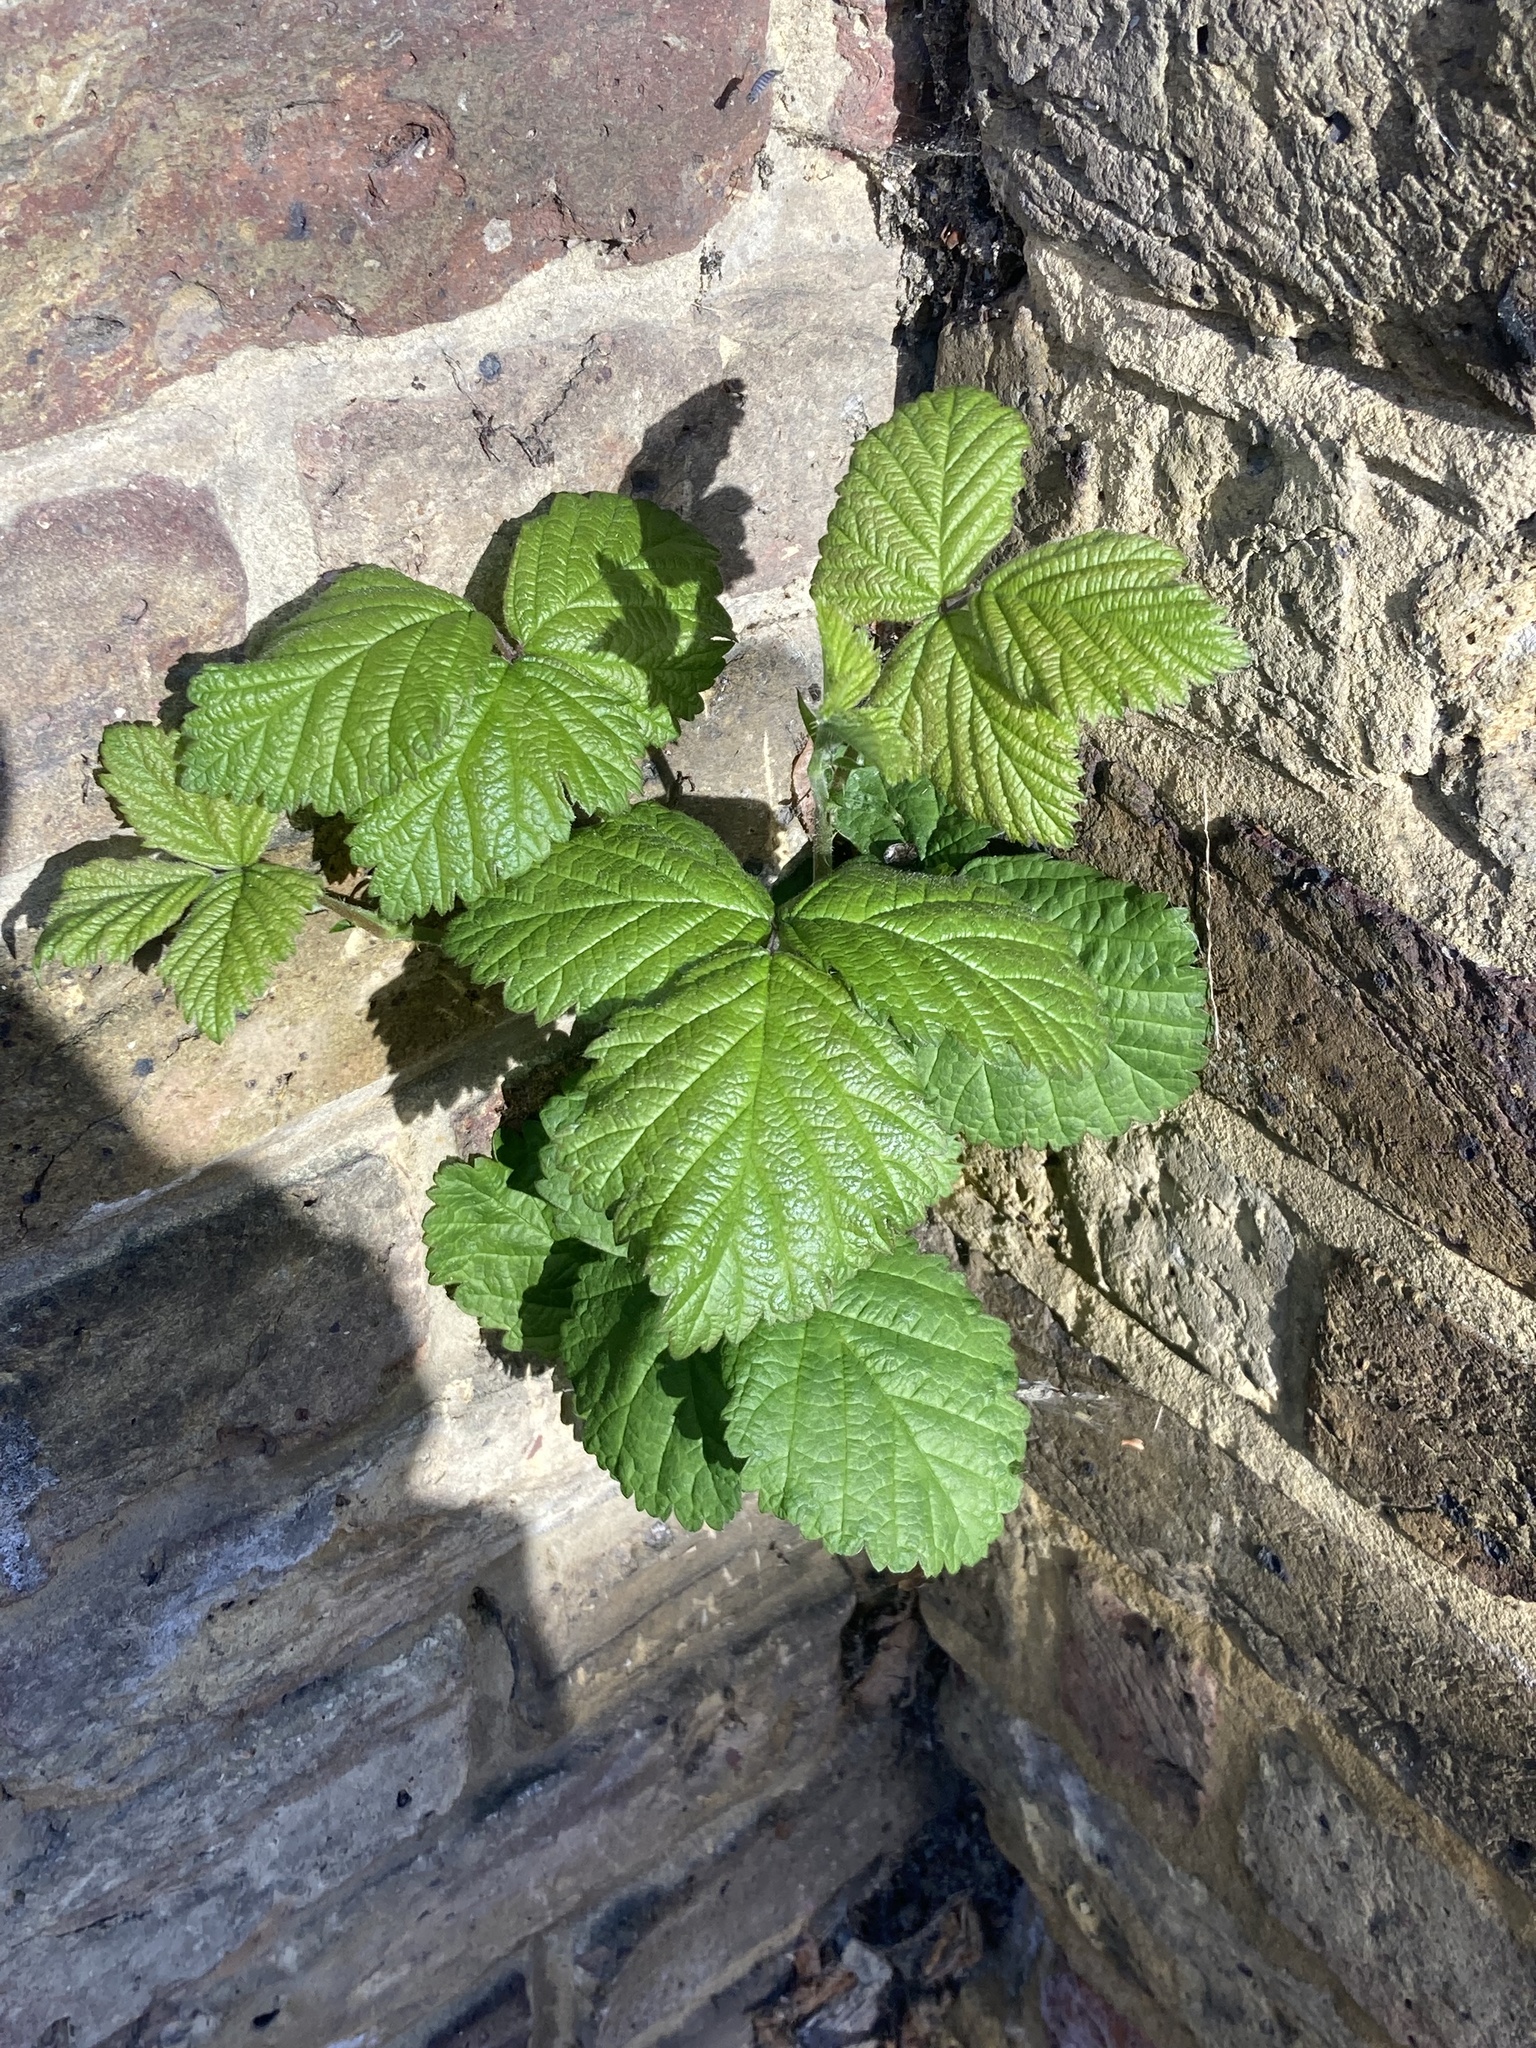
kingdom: Plantae
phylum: Tracheophyta
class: Magnoliopsida
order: Rosales
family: Rosaceae
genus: Rubus
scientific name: Rubus armeniacus
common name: Himalayan blackberry
